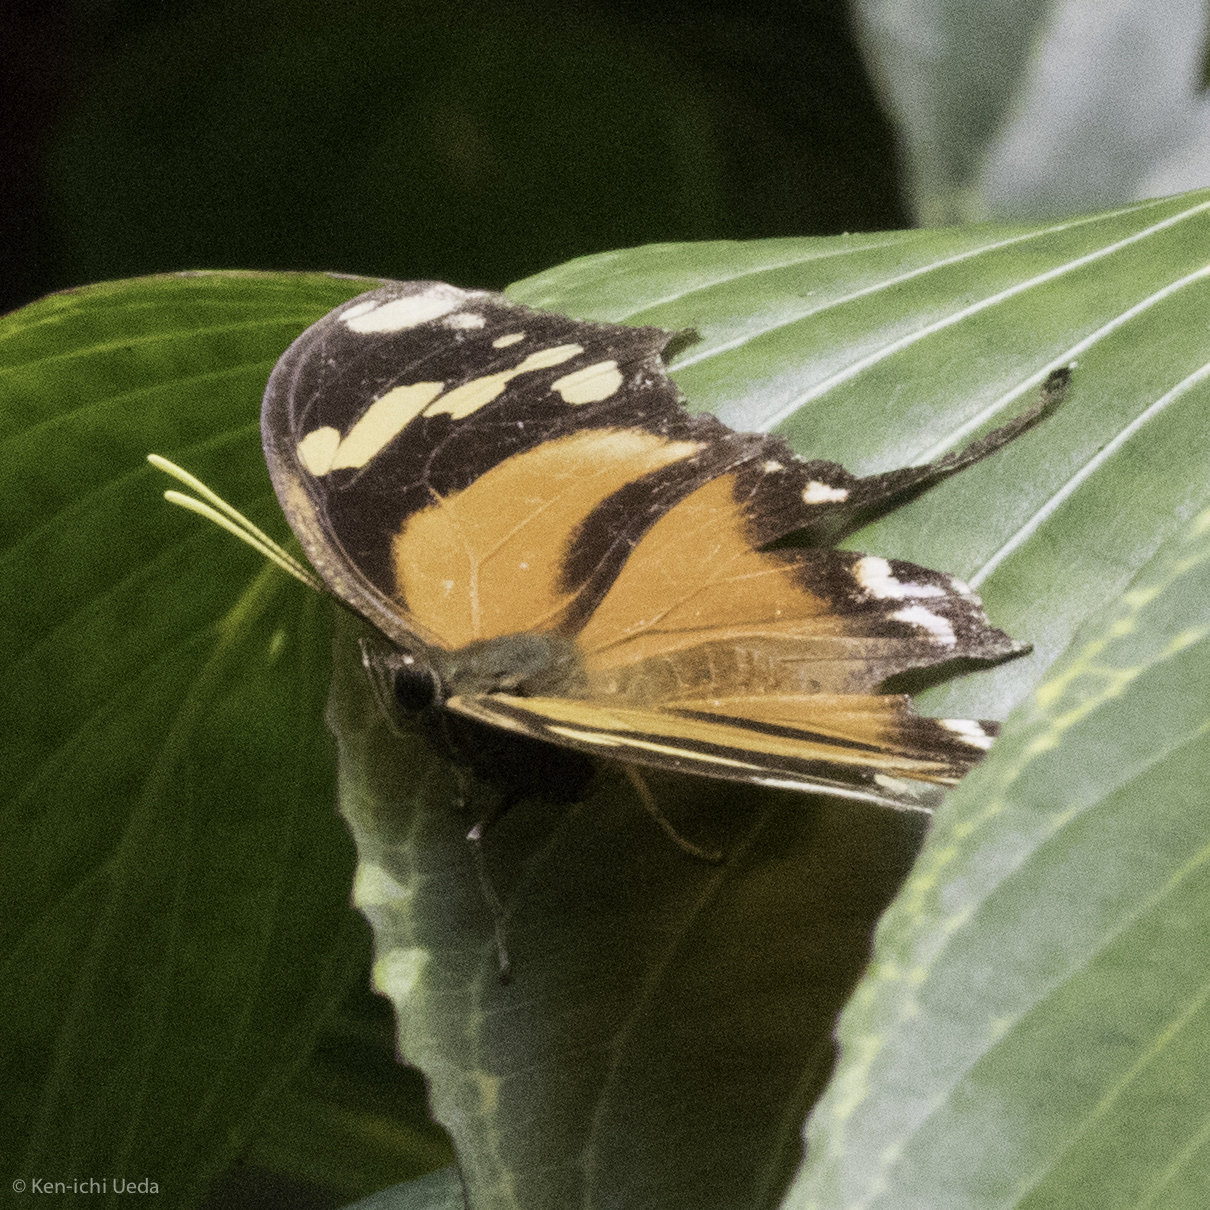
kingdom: Animalia
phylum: Arthropoda
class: Insecta
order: Lepidoptera
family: Nymphalidae
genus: Consul
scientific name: Consul fabius
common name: Tiger leafwing
